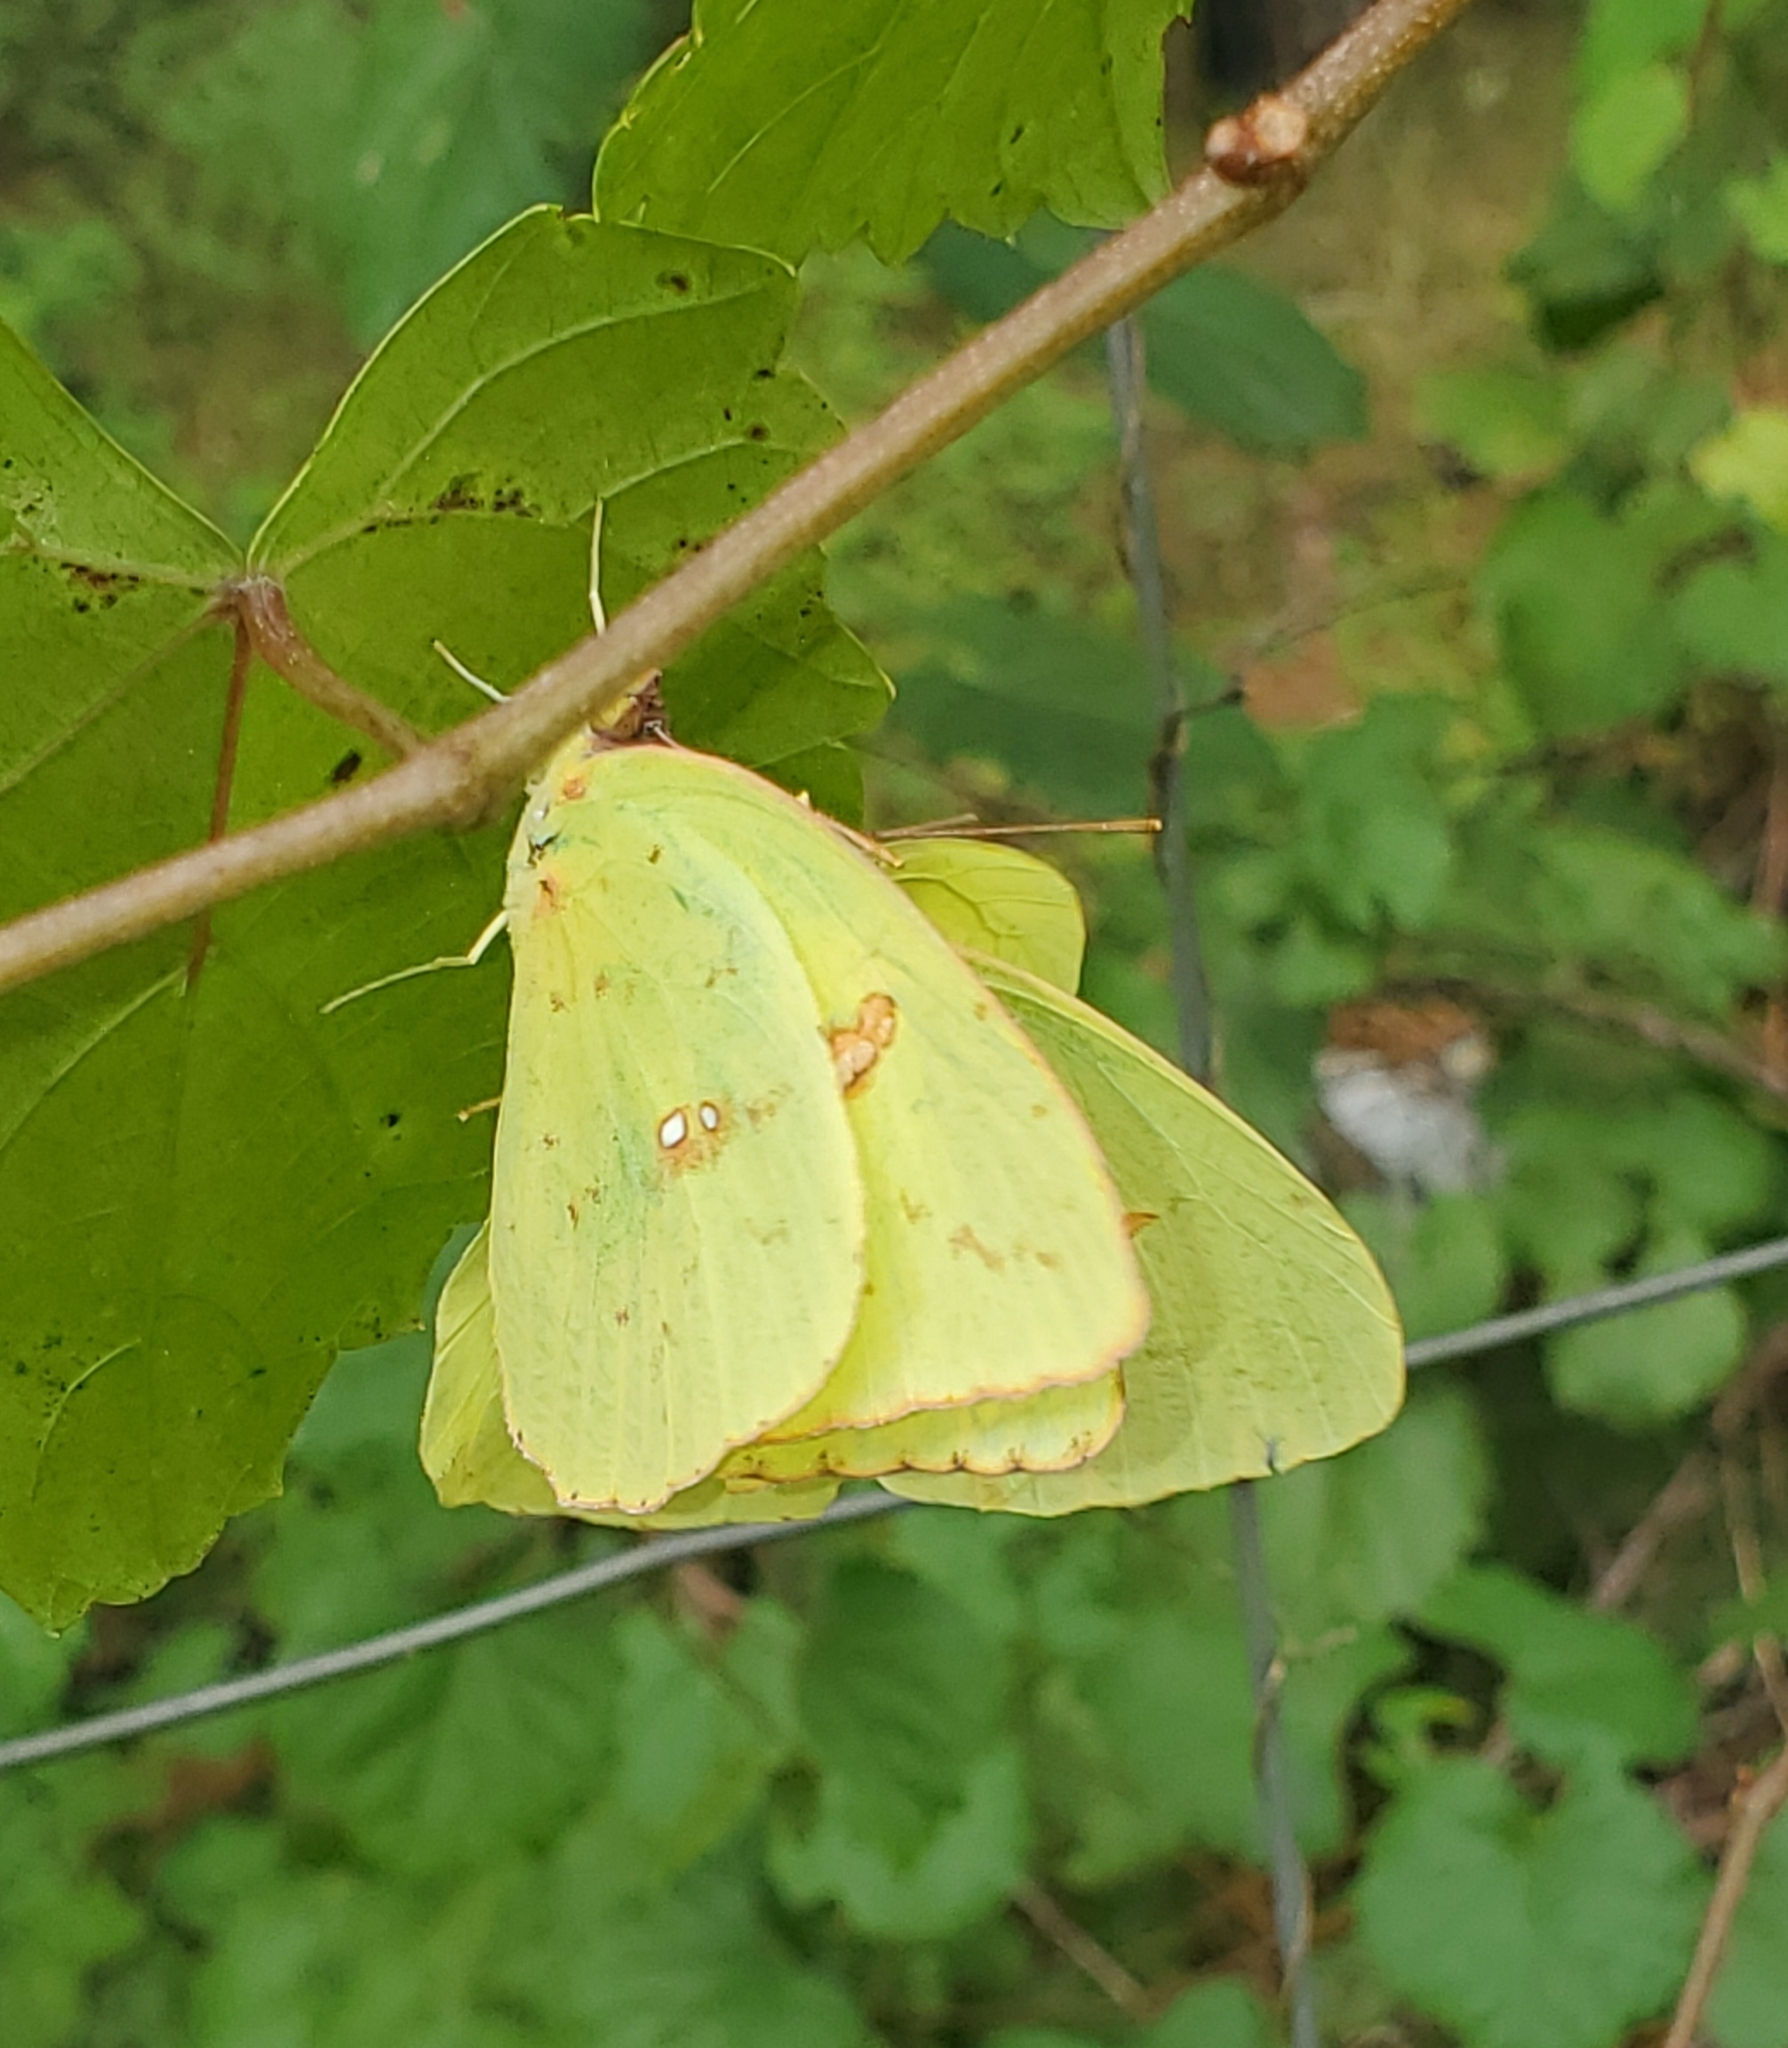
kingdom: Animalia
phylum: Arthropoda
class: Insecta
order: Lepidoptera
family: Pieridae
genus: Phoebis
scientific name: Phoebis sennae
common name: Cloudless sulphur
